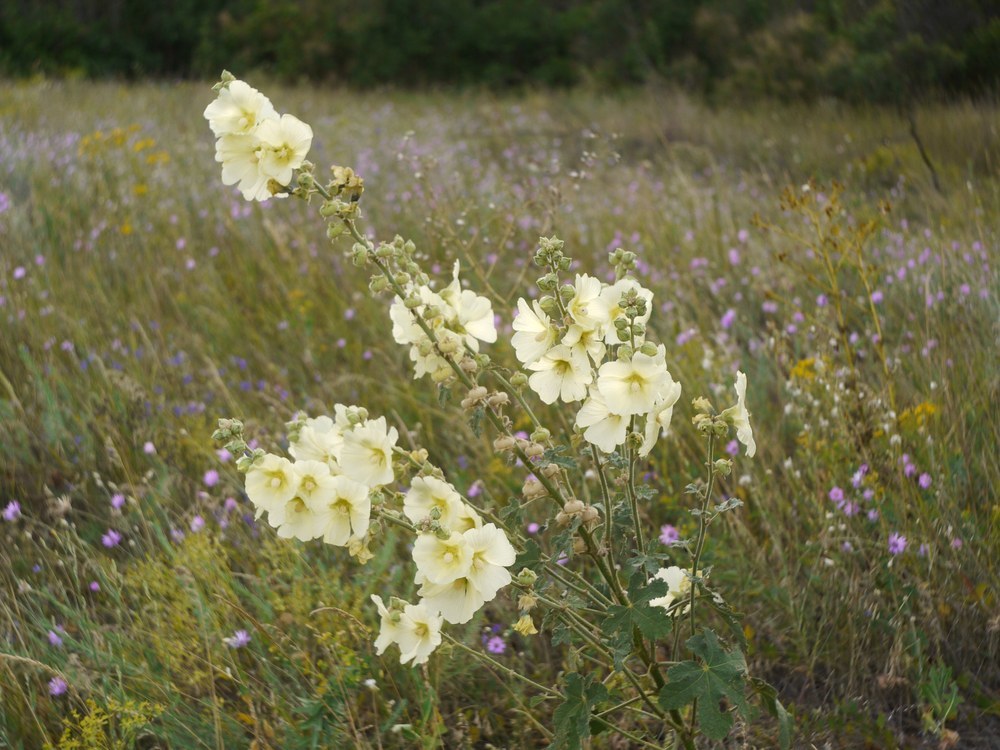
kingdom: Plantae
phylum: Tracheophyta
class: Magnoliopsida
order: Malvales
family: Malvaceae
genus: Alcea
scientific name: Alcea rugosa
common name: Russian hollyhock
